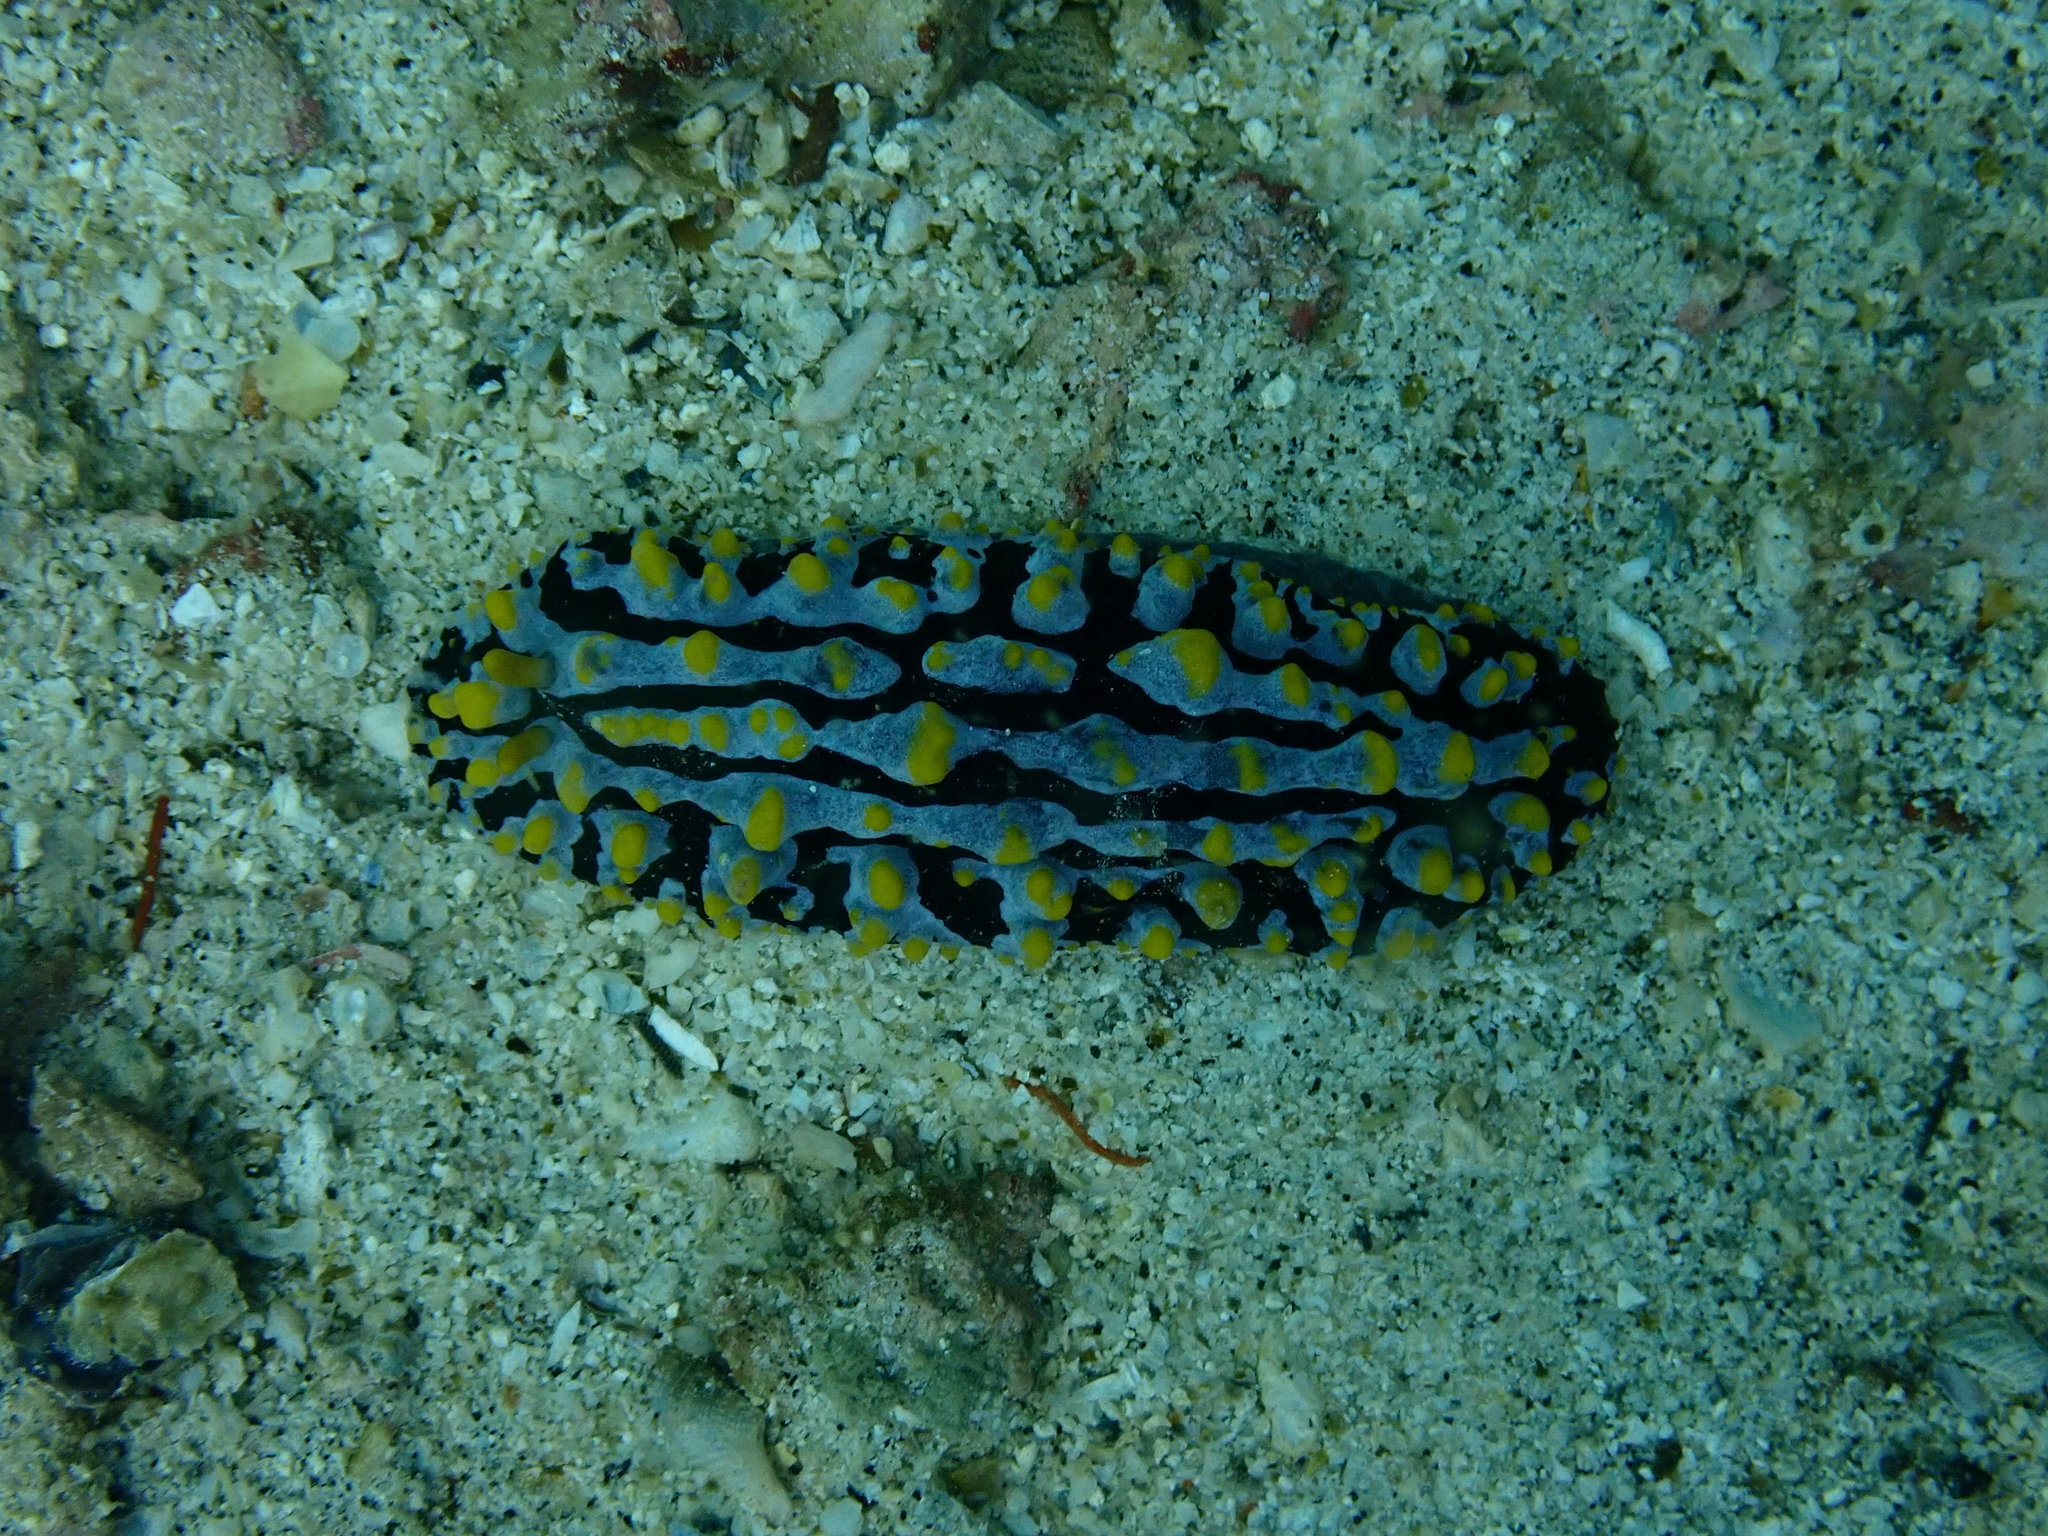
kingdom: Animalia
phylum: Mollusca
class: Gastropoda
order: Nudibranchia
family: Phyllidiidae
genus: Phyllidia
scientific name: Phyllidia varicosa
